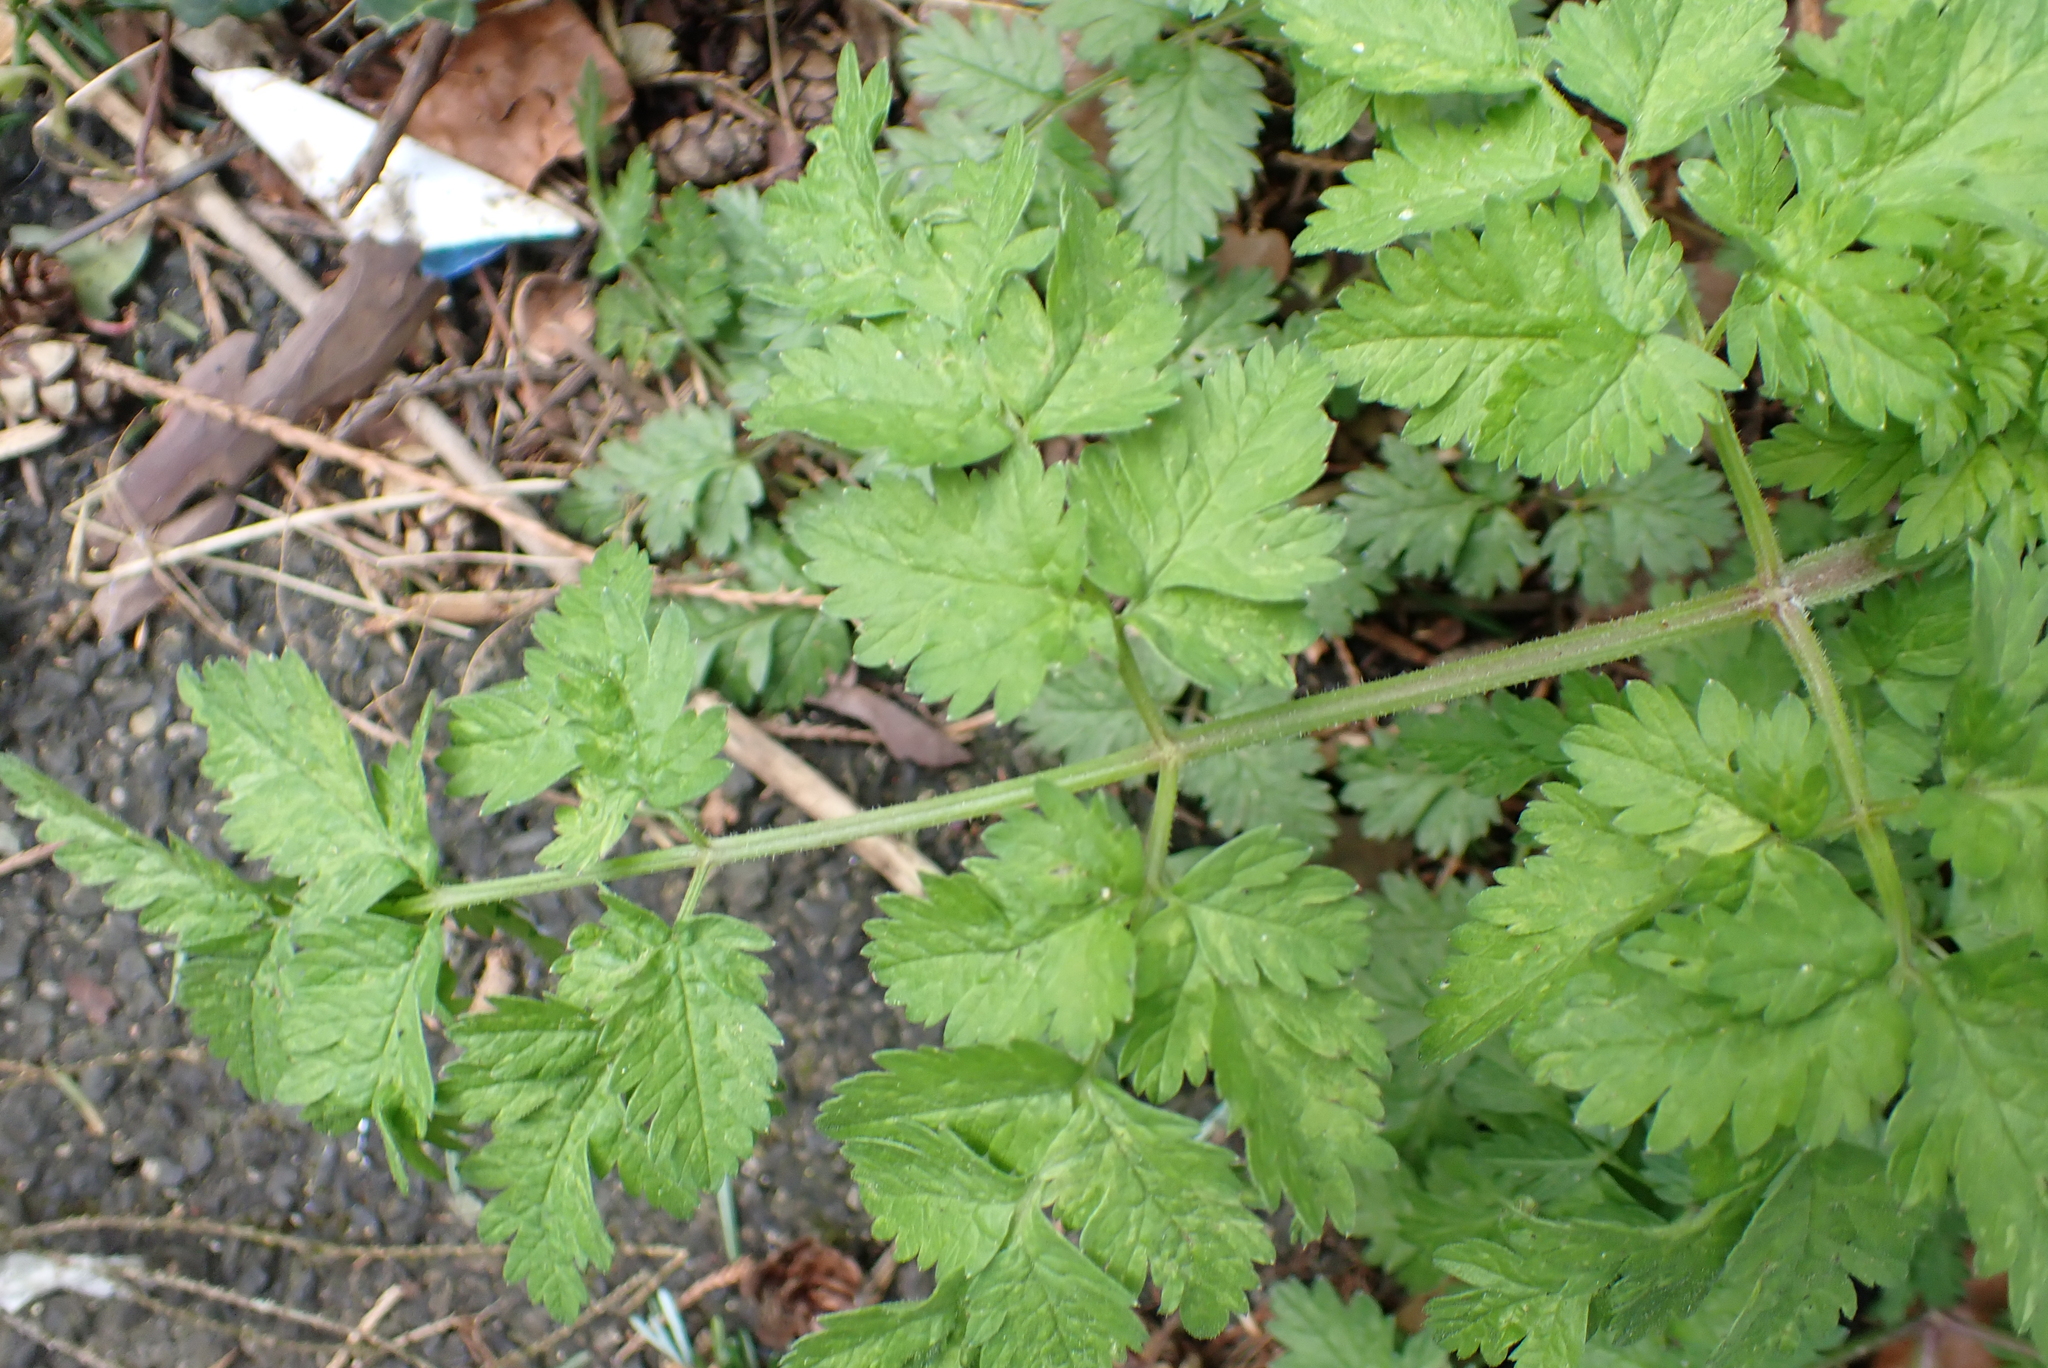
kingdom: Plantae
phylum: Tracheophyta
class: Magnoliopsida
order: Apiales
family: Apiaceae
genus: Anthriscus
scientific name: Anthriscus sylvestris
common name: Cow parsley
